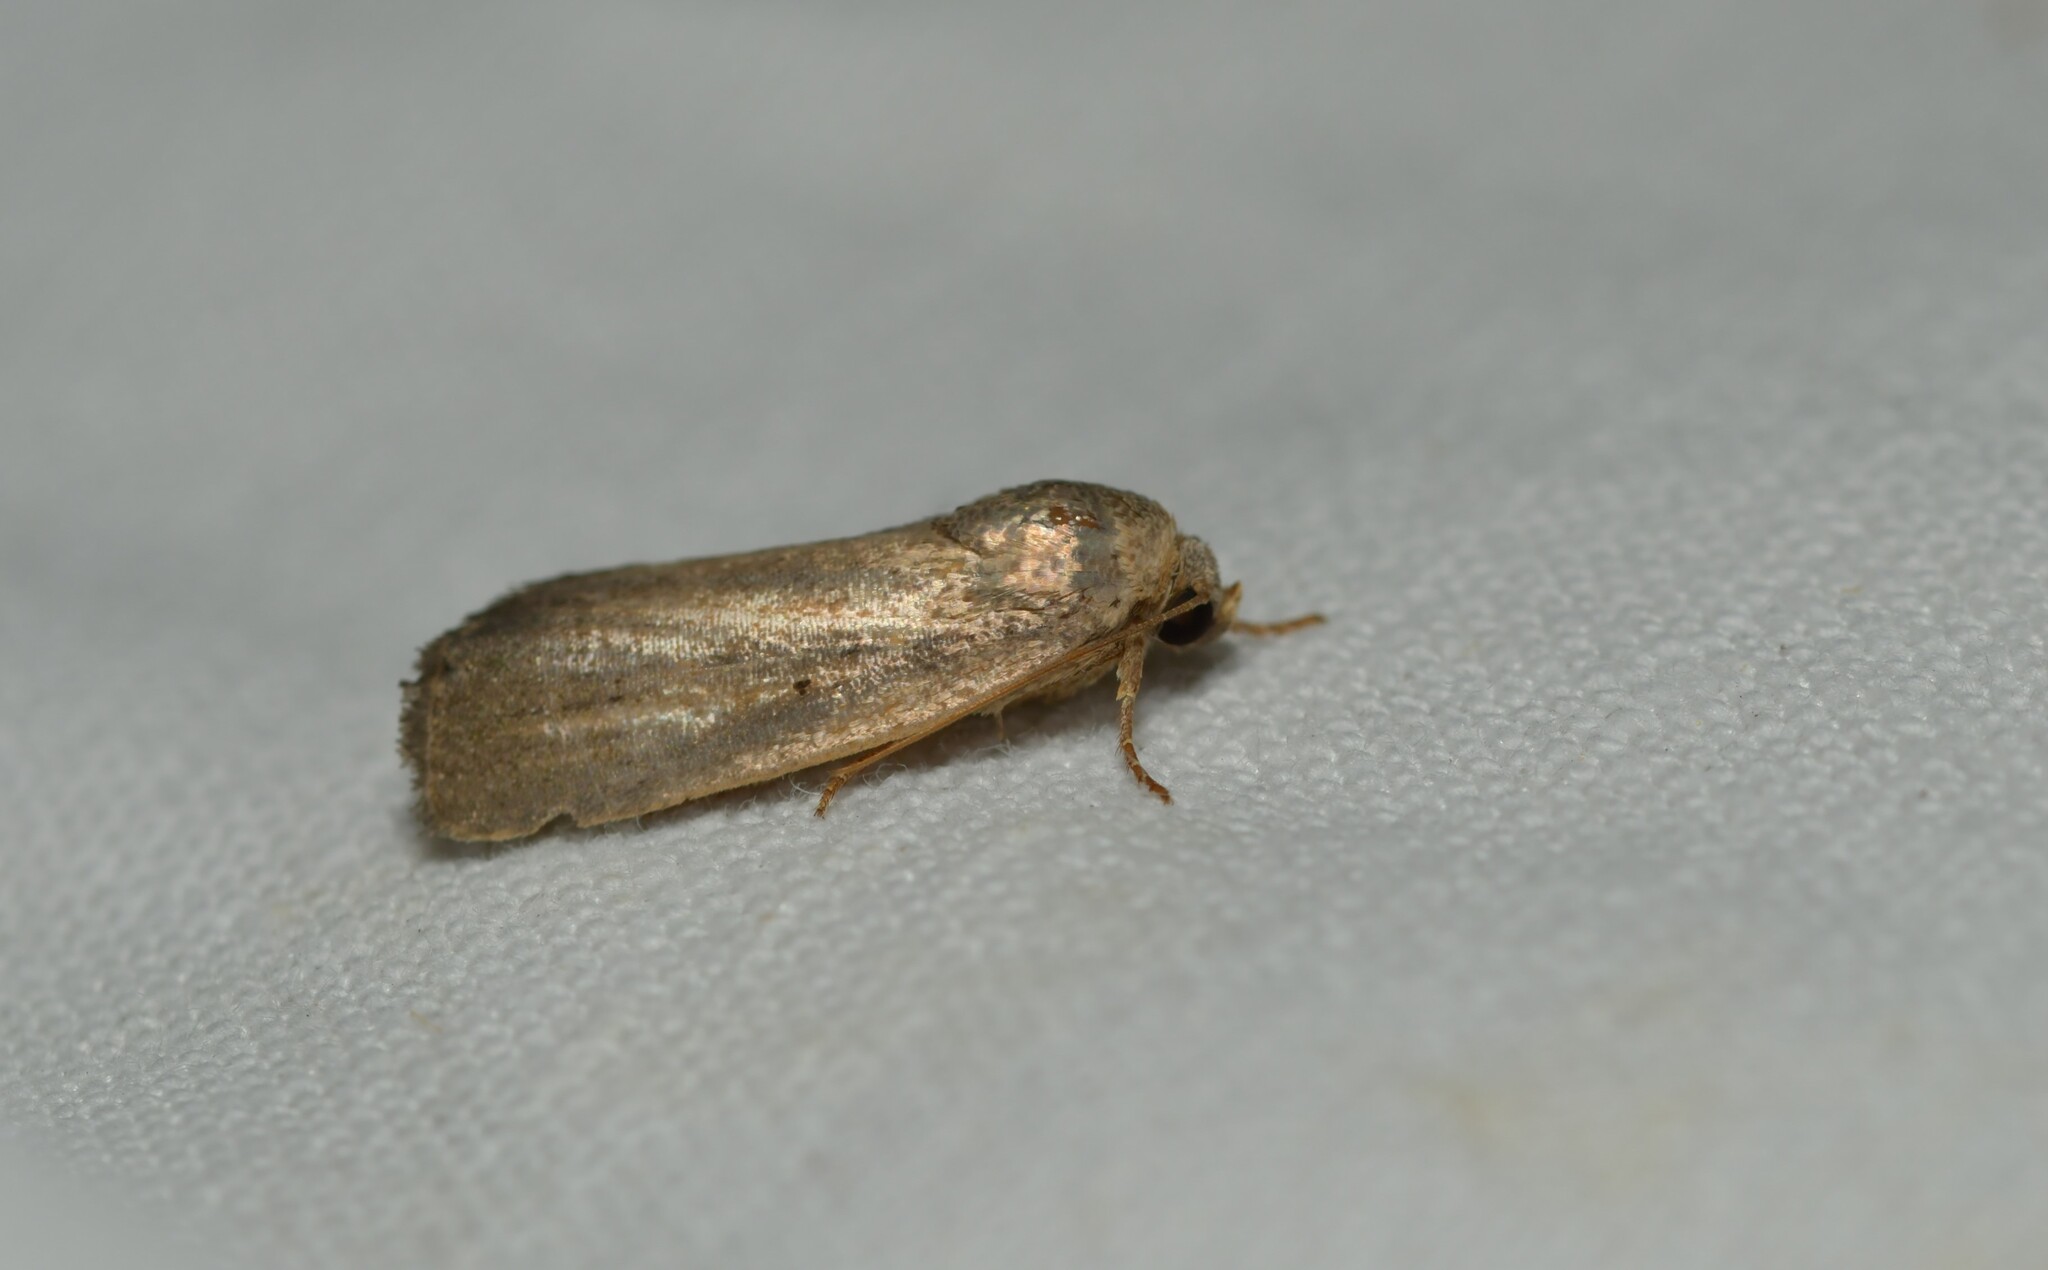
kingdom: Animalia
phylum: Arthropoda
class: Insecta
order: Lepidoptera
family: Noctuidae
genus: Athetis
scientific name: Athetis hospes
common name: Porter's rustic
